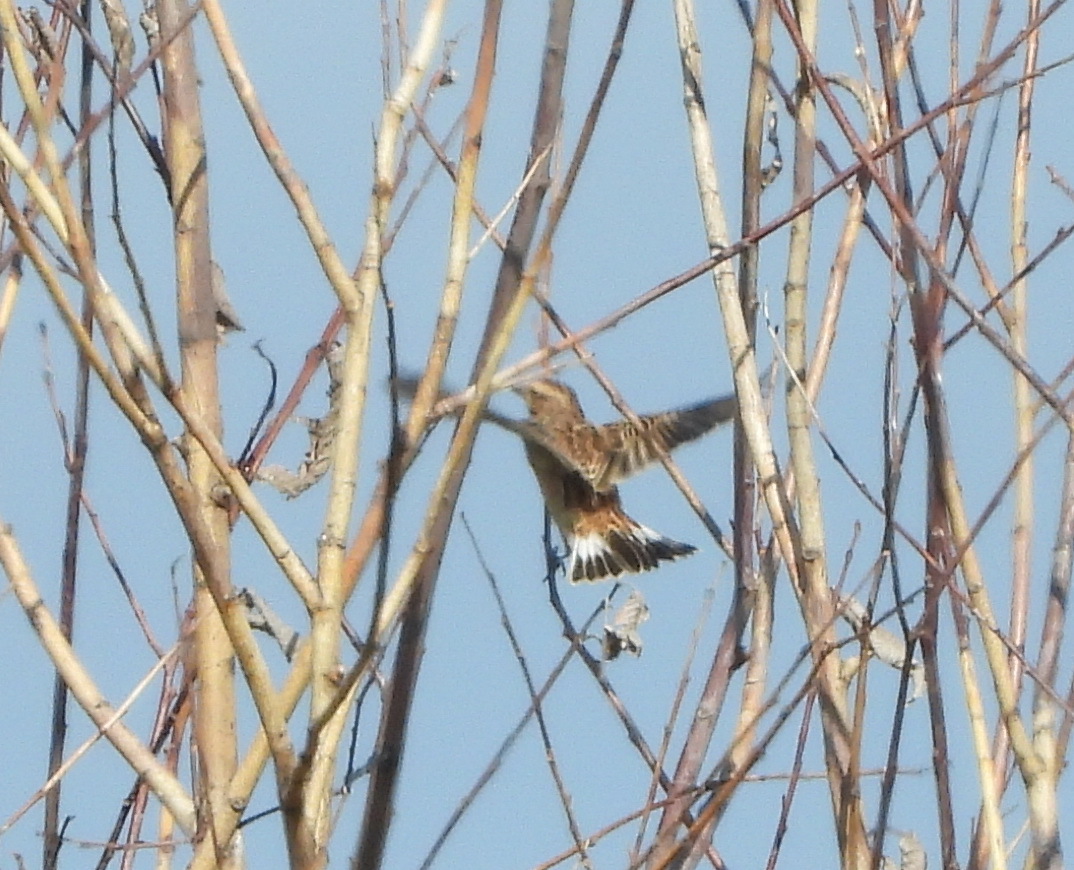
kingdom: Animalia
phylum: Chordata
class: Aves
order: Passeriformes
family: Muscicapidae
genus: Saxicola
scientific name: Saxicola rubetra
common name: Whinchat
